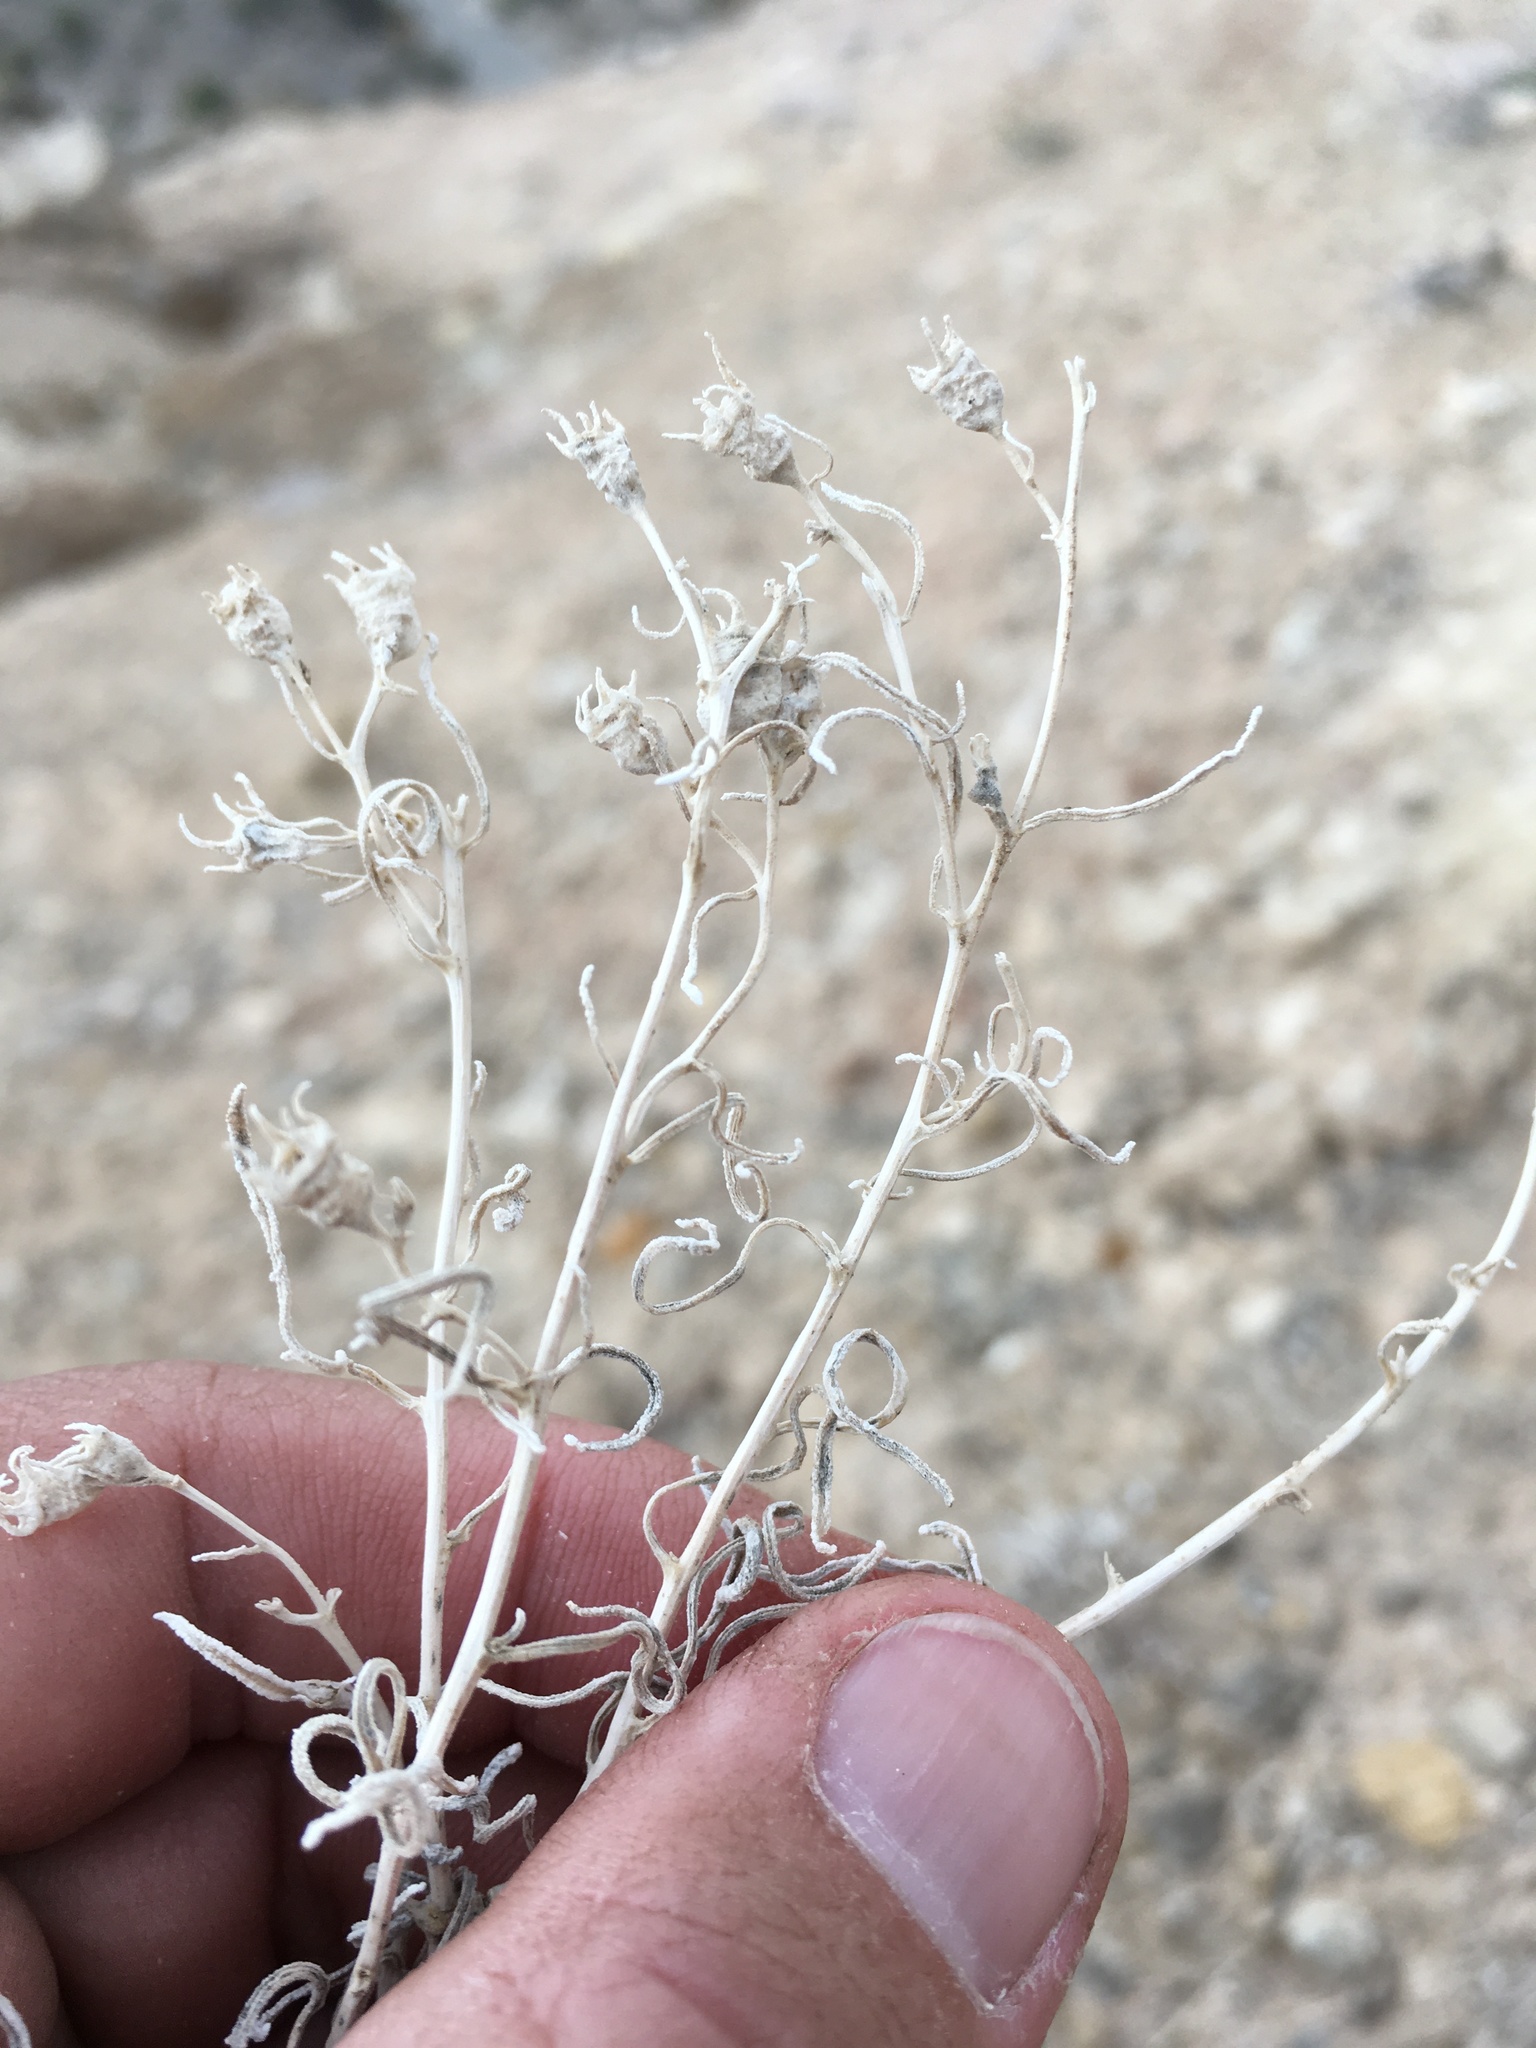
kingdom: Plantae
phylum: Tracheophyta
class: Magnoliopsida
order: Cornales
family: Loasaceae
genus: Mentzelia
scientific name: Mentzelia todiltoensis
